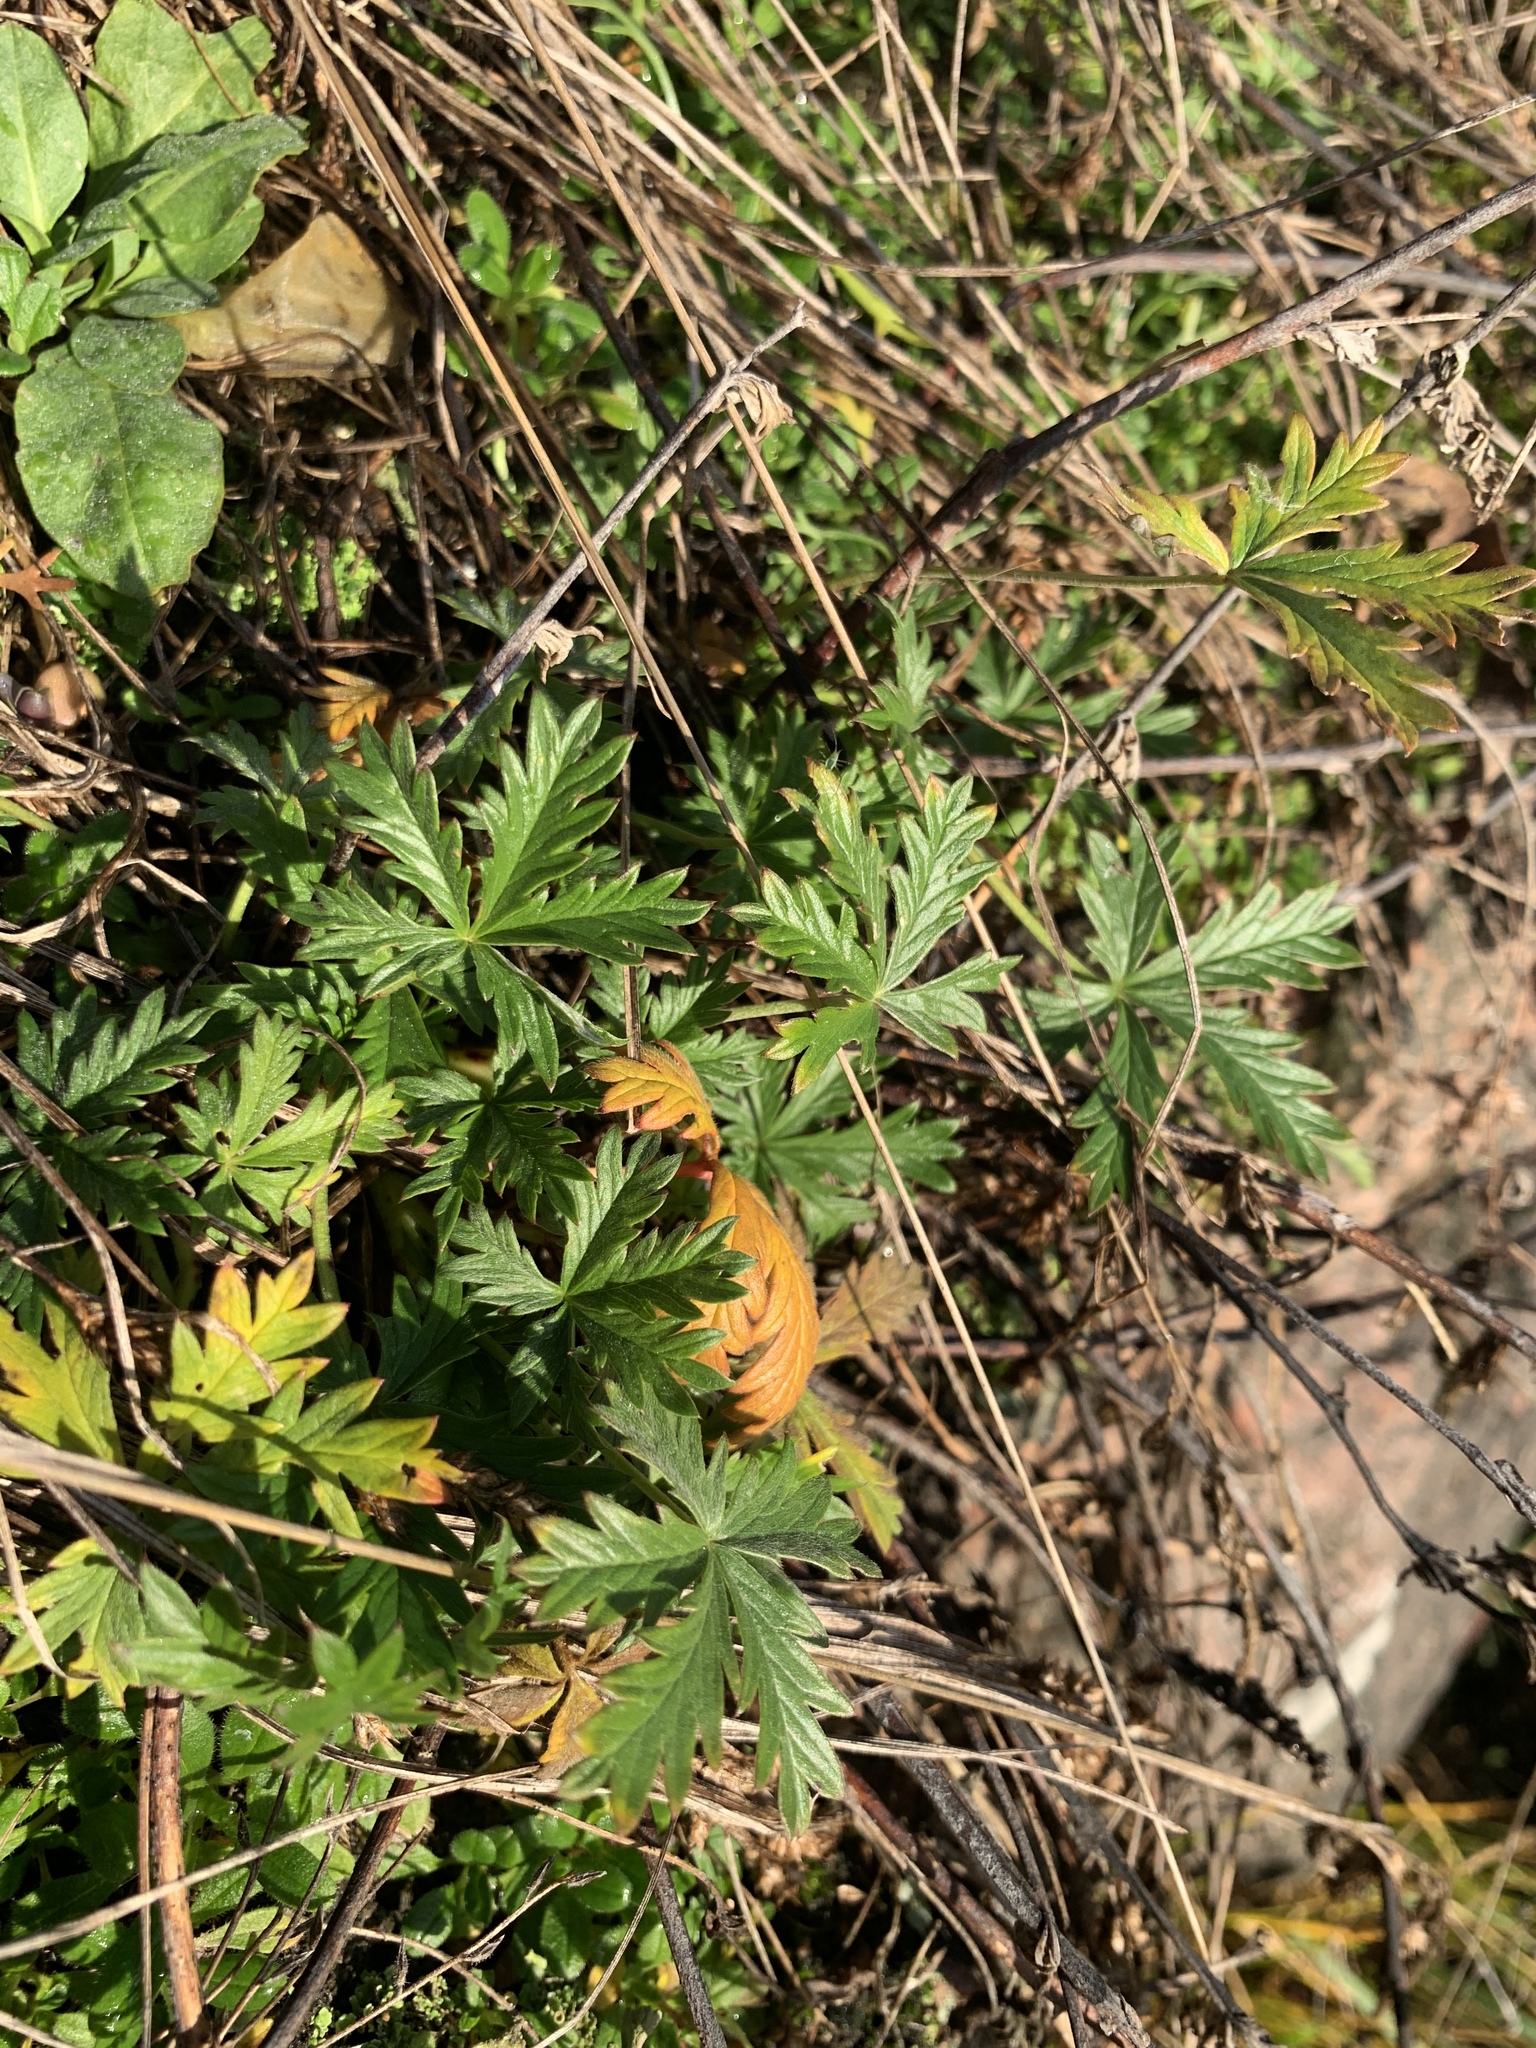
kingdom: Plantae
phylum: Tracheophyta
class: Magnoliopsida
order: Rosales
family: Rosaceae
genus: Potentilla
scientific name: Potentilla argentea
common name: Hoary cinquefoil
